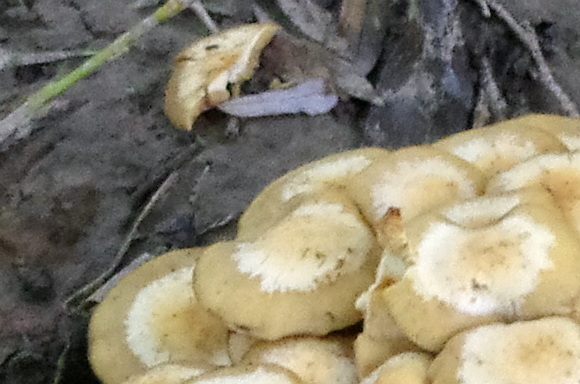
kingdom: Fungi
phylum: Basidiomycota
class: Agaricomycetes
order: Agaricales
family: Strophariaceae
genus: Kuehneromyces
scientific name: Kuehneromyces mutabilis
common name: Sheathed woodtuft
